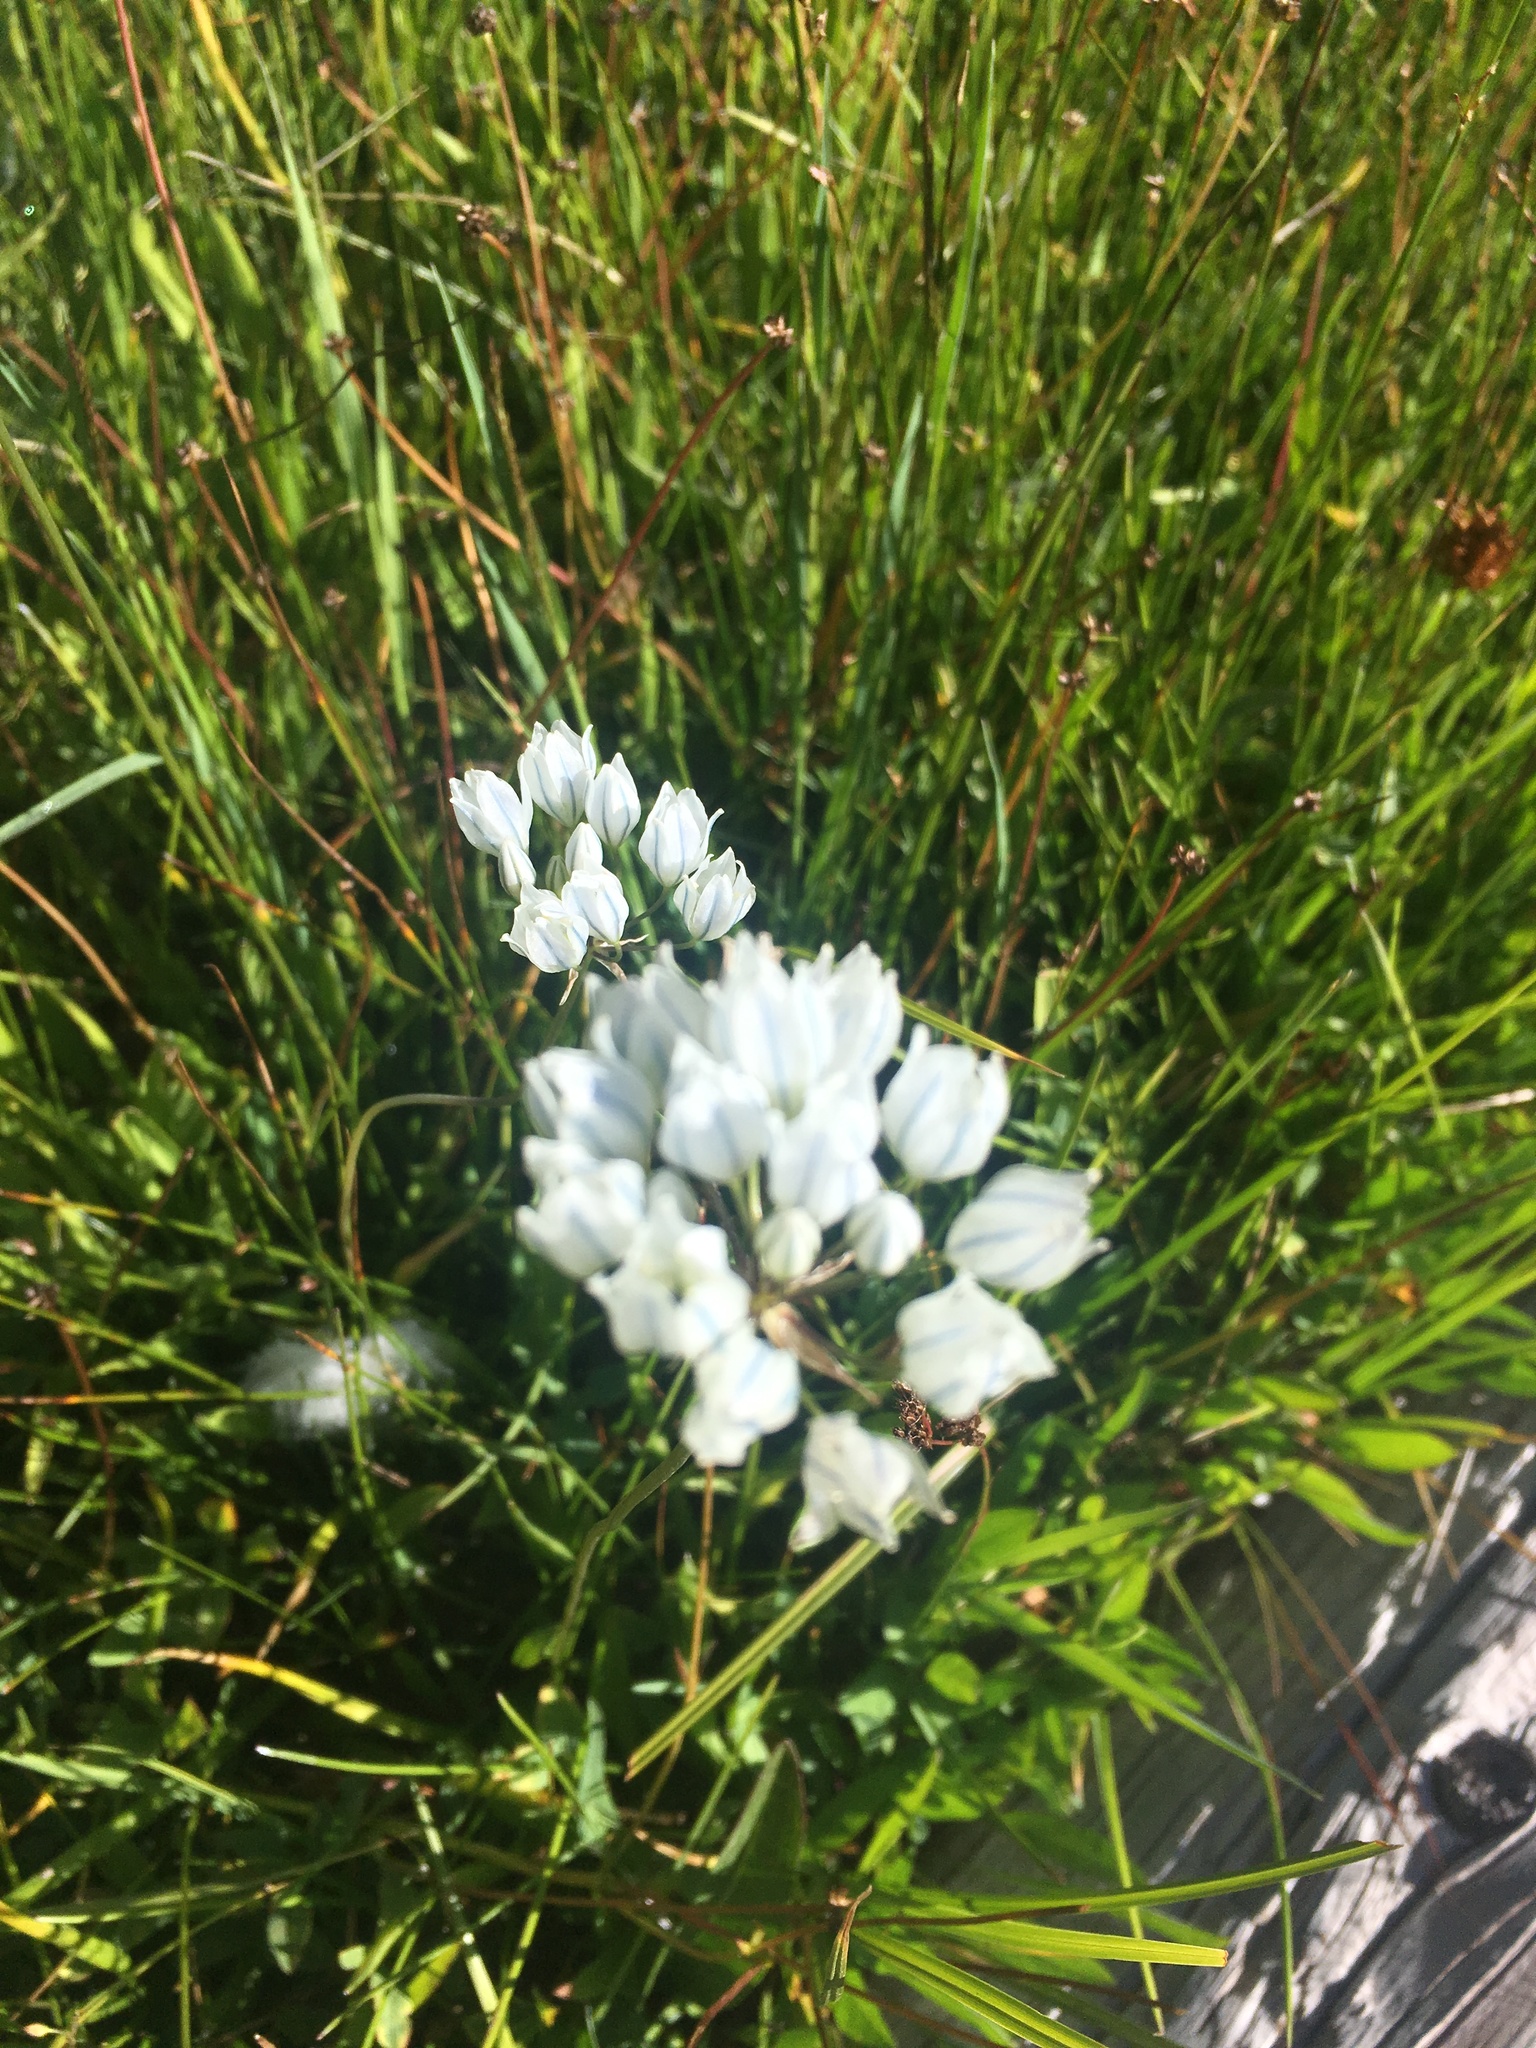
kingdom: Plantae
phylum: Tracheophyta
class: Liliopsida
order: Asparagales
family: Asparagaceae
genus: Triteleia
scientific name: Triteleia hyacinthina
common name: White brodiaea
